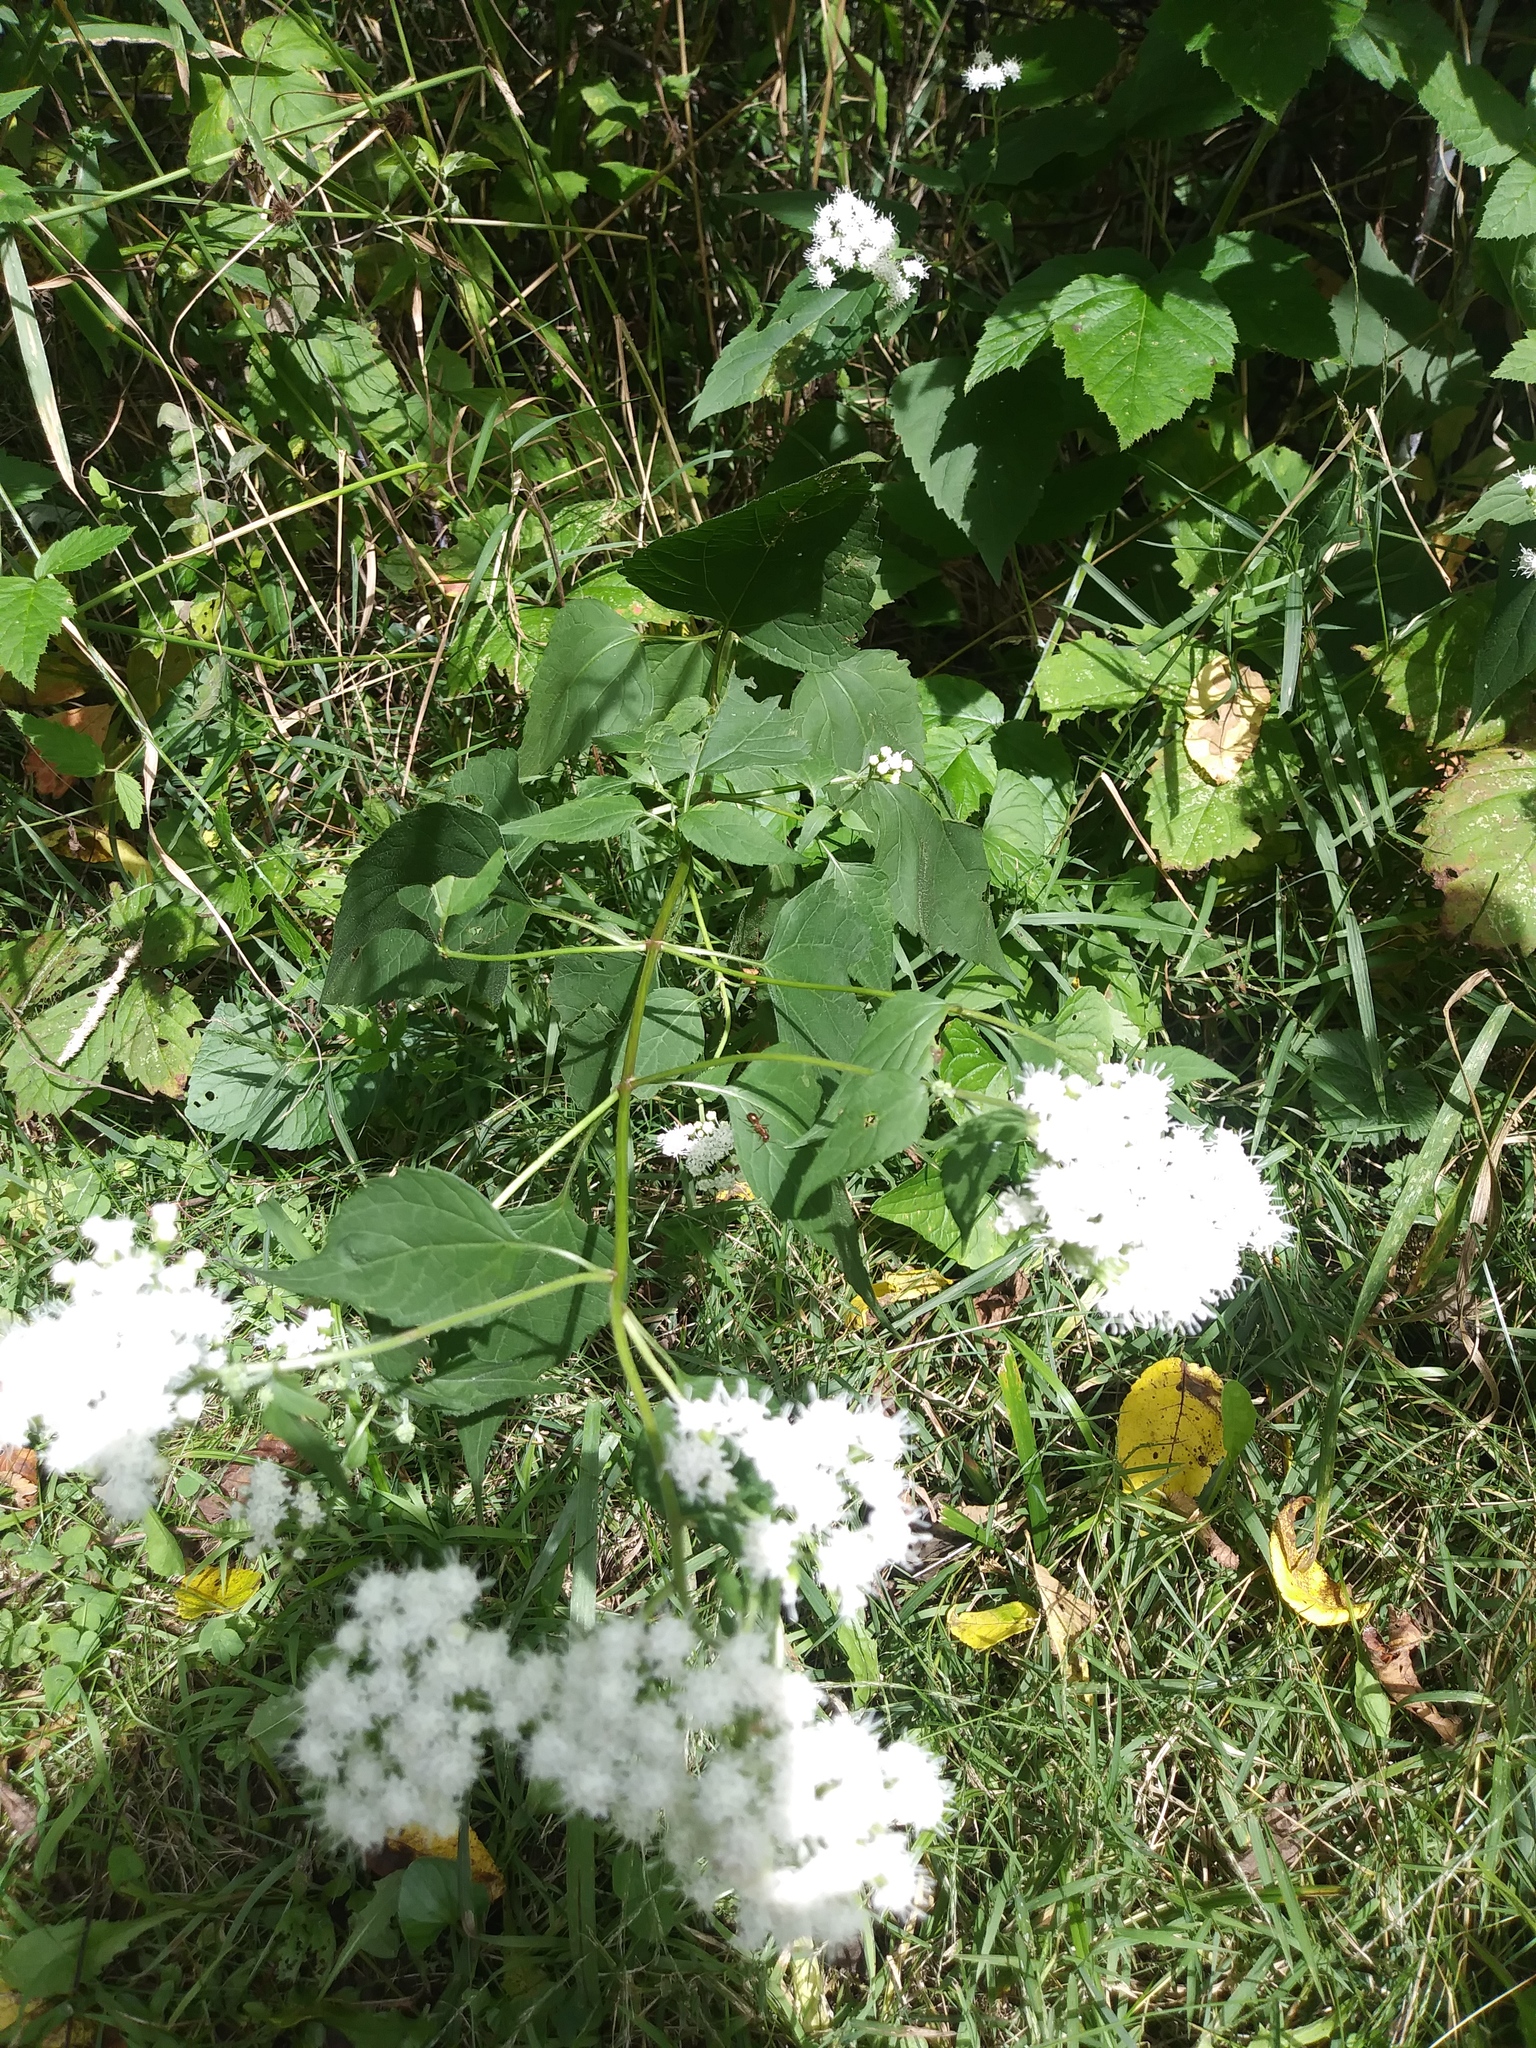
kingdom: Plantae
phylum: Tracheophyta
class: Magnoliopsida
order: Asterales
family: Asteraceae
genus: Ageratina
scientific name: Ageratina altissima
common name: White snakeroot
